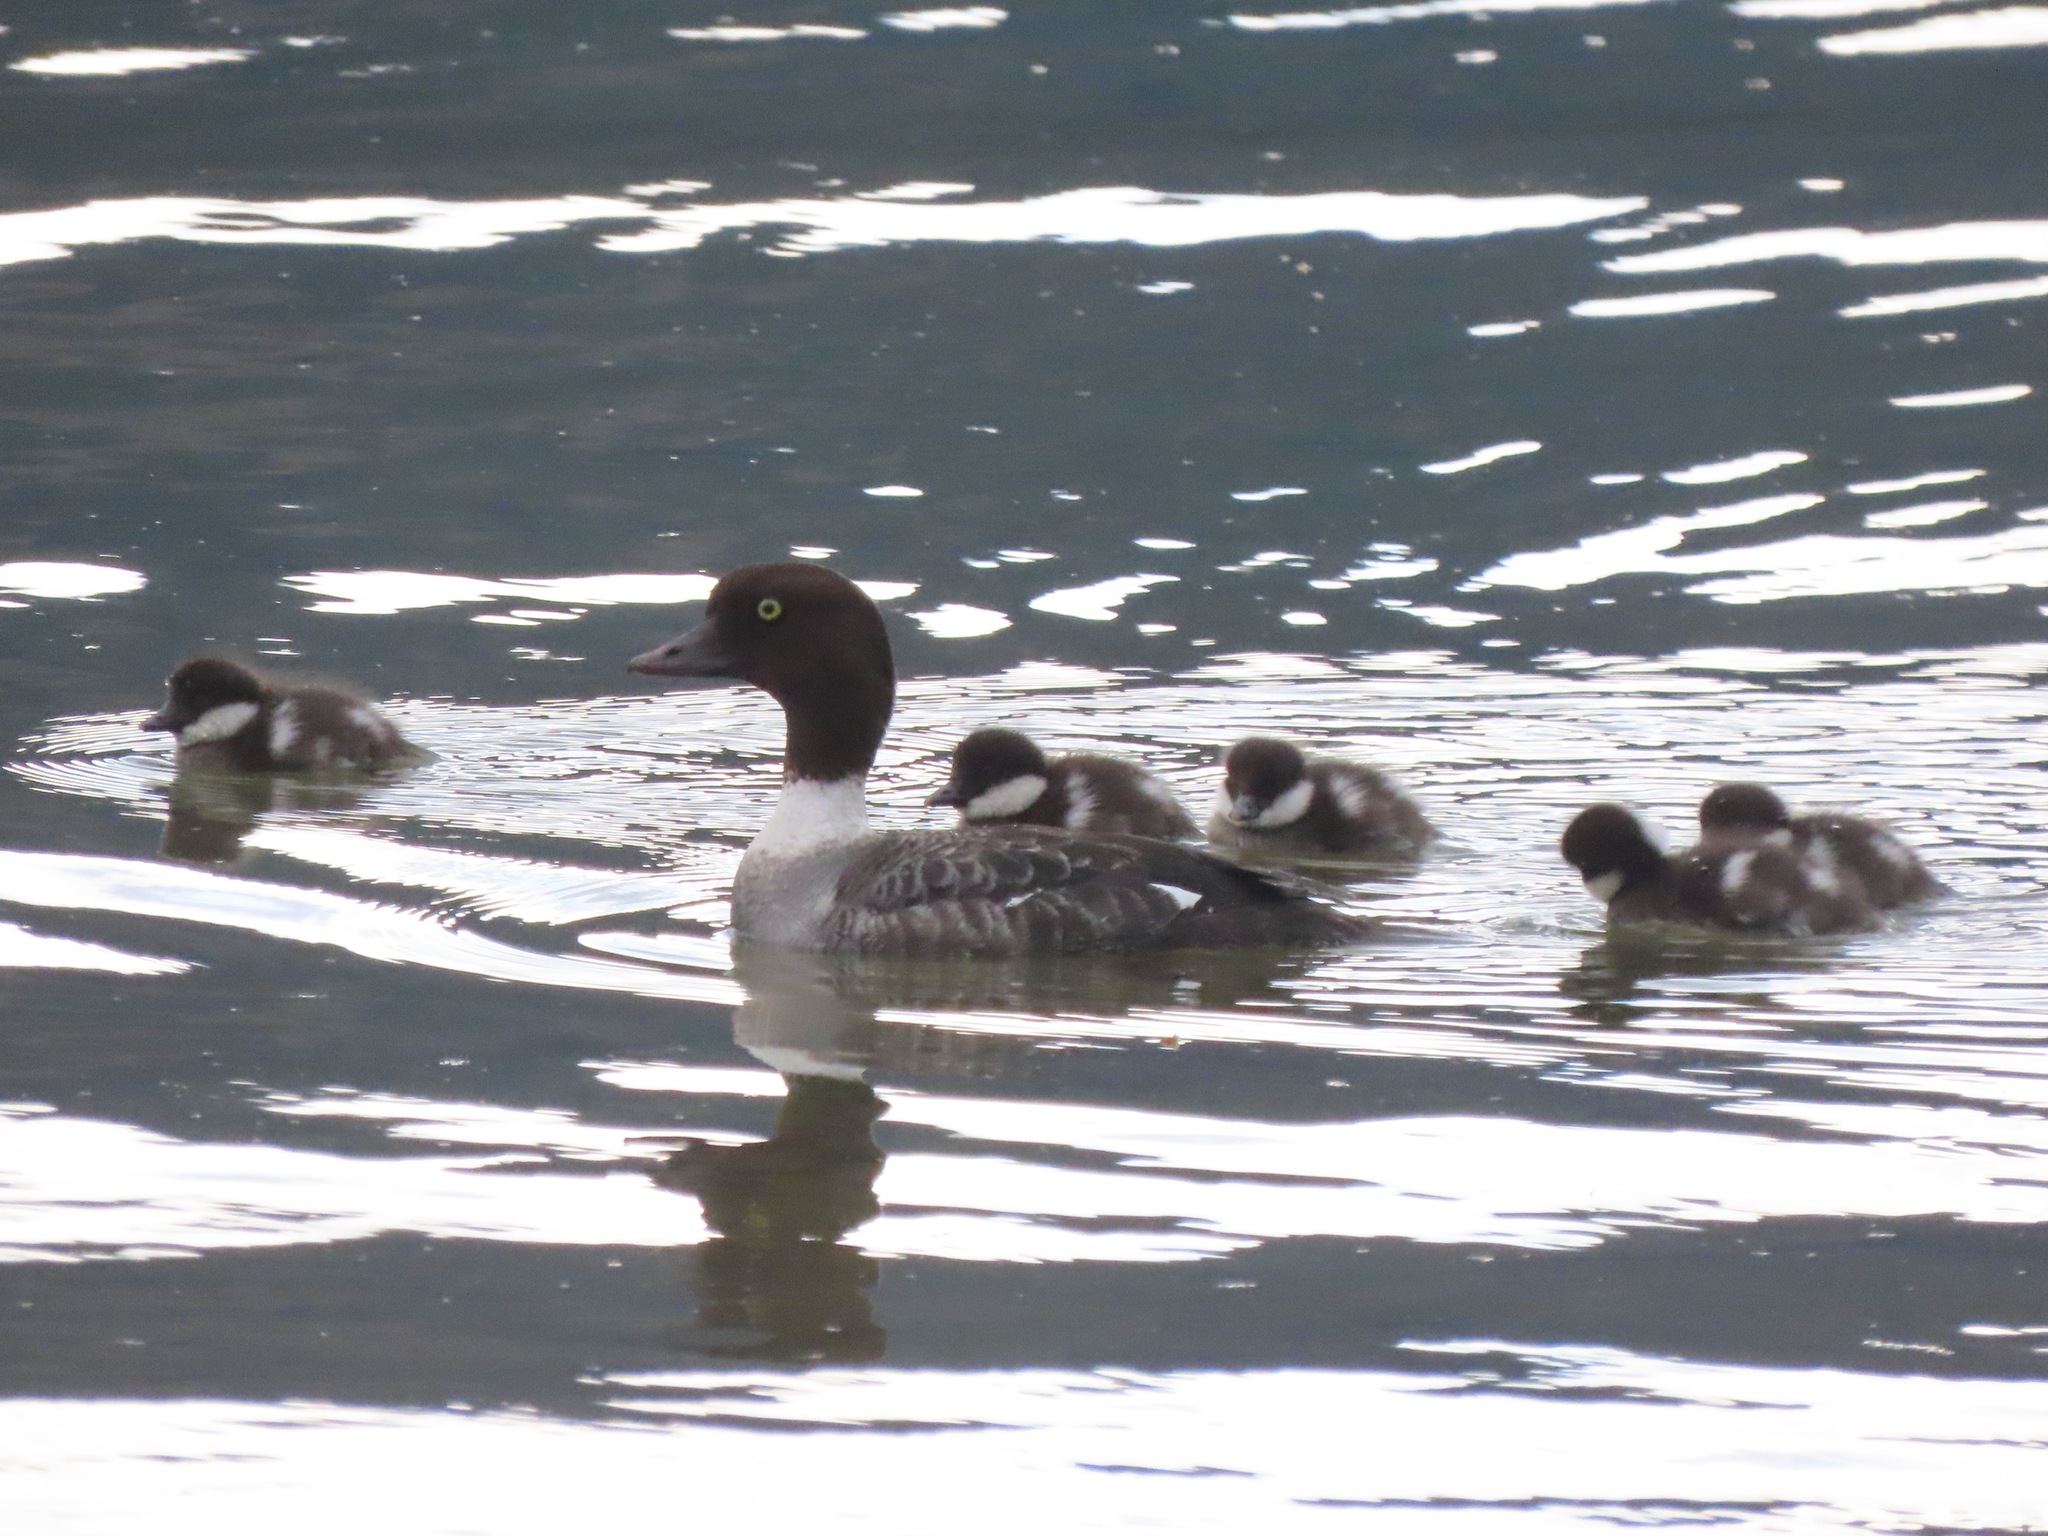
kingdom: Animalia
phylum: Chordata
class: Aves
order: Anseriformes
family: Anatidae
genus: Bucephala
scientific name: Bucephala islandica
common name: Barrow's goldeneye
